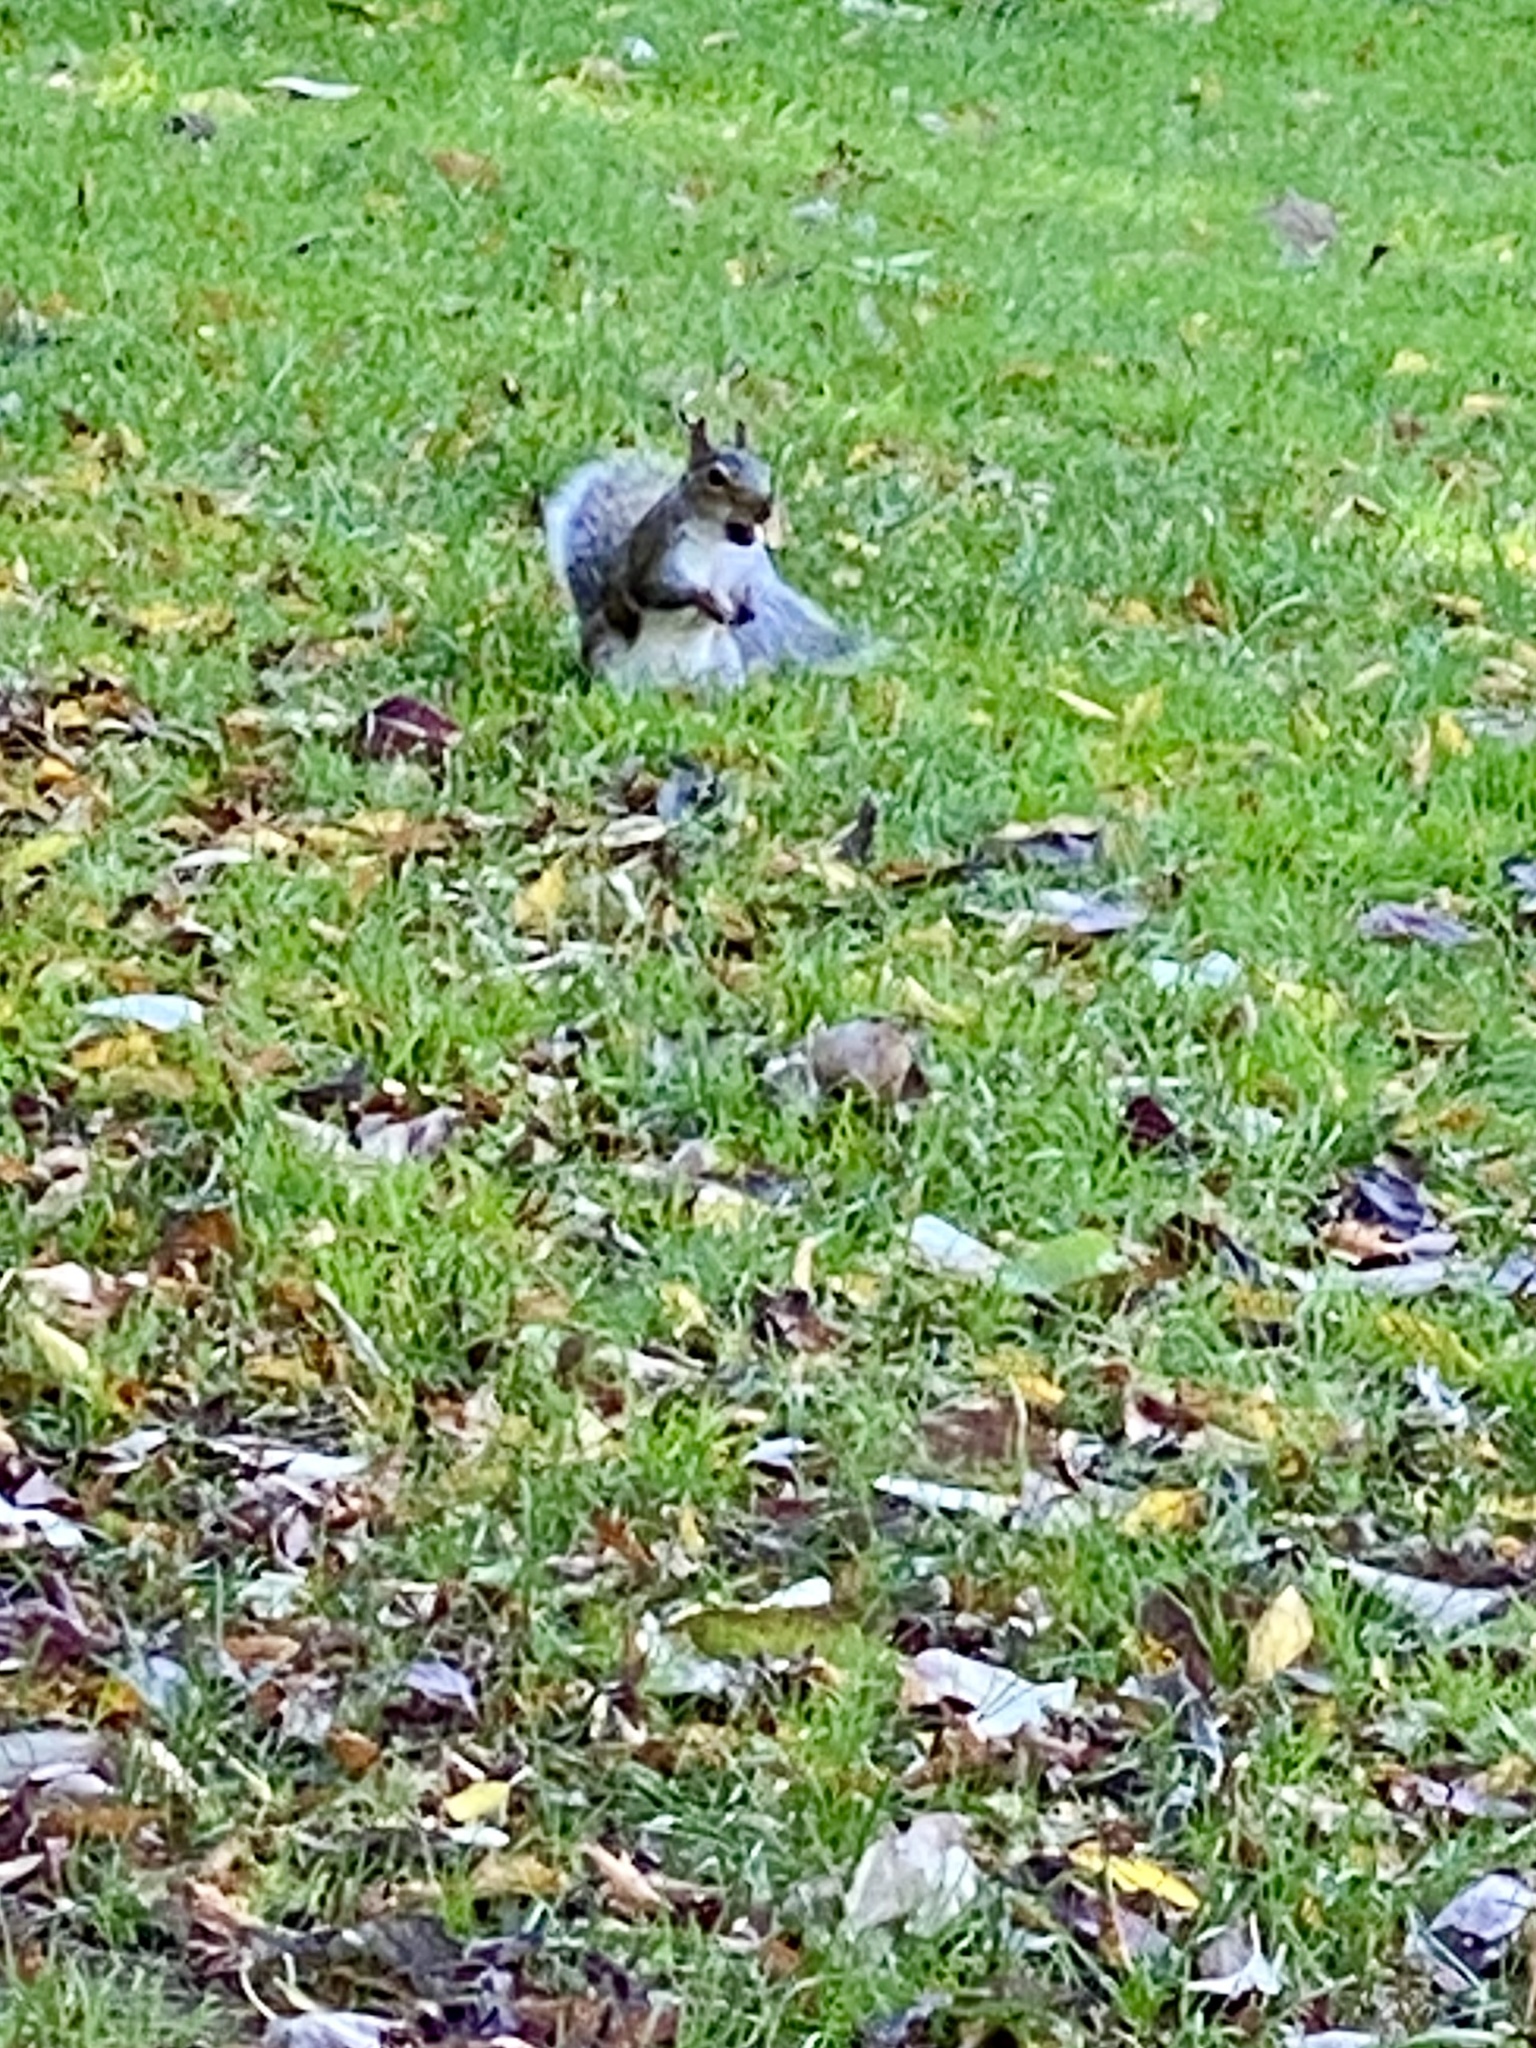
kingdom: Animalia
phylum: Chordata
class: Mammalia
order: Rodentia
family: Sciuridae
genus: Sciurus
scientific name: Sciurus carolinensis
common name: Eastern gray squirrel
